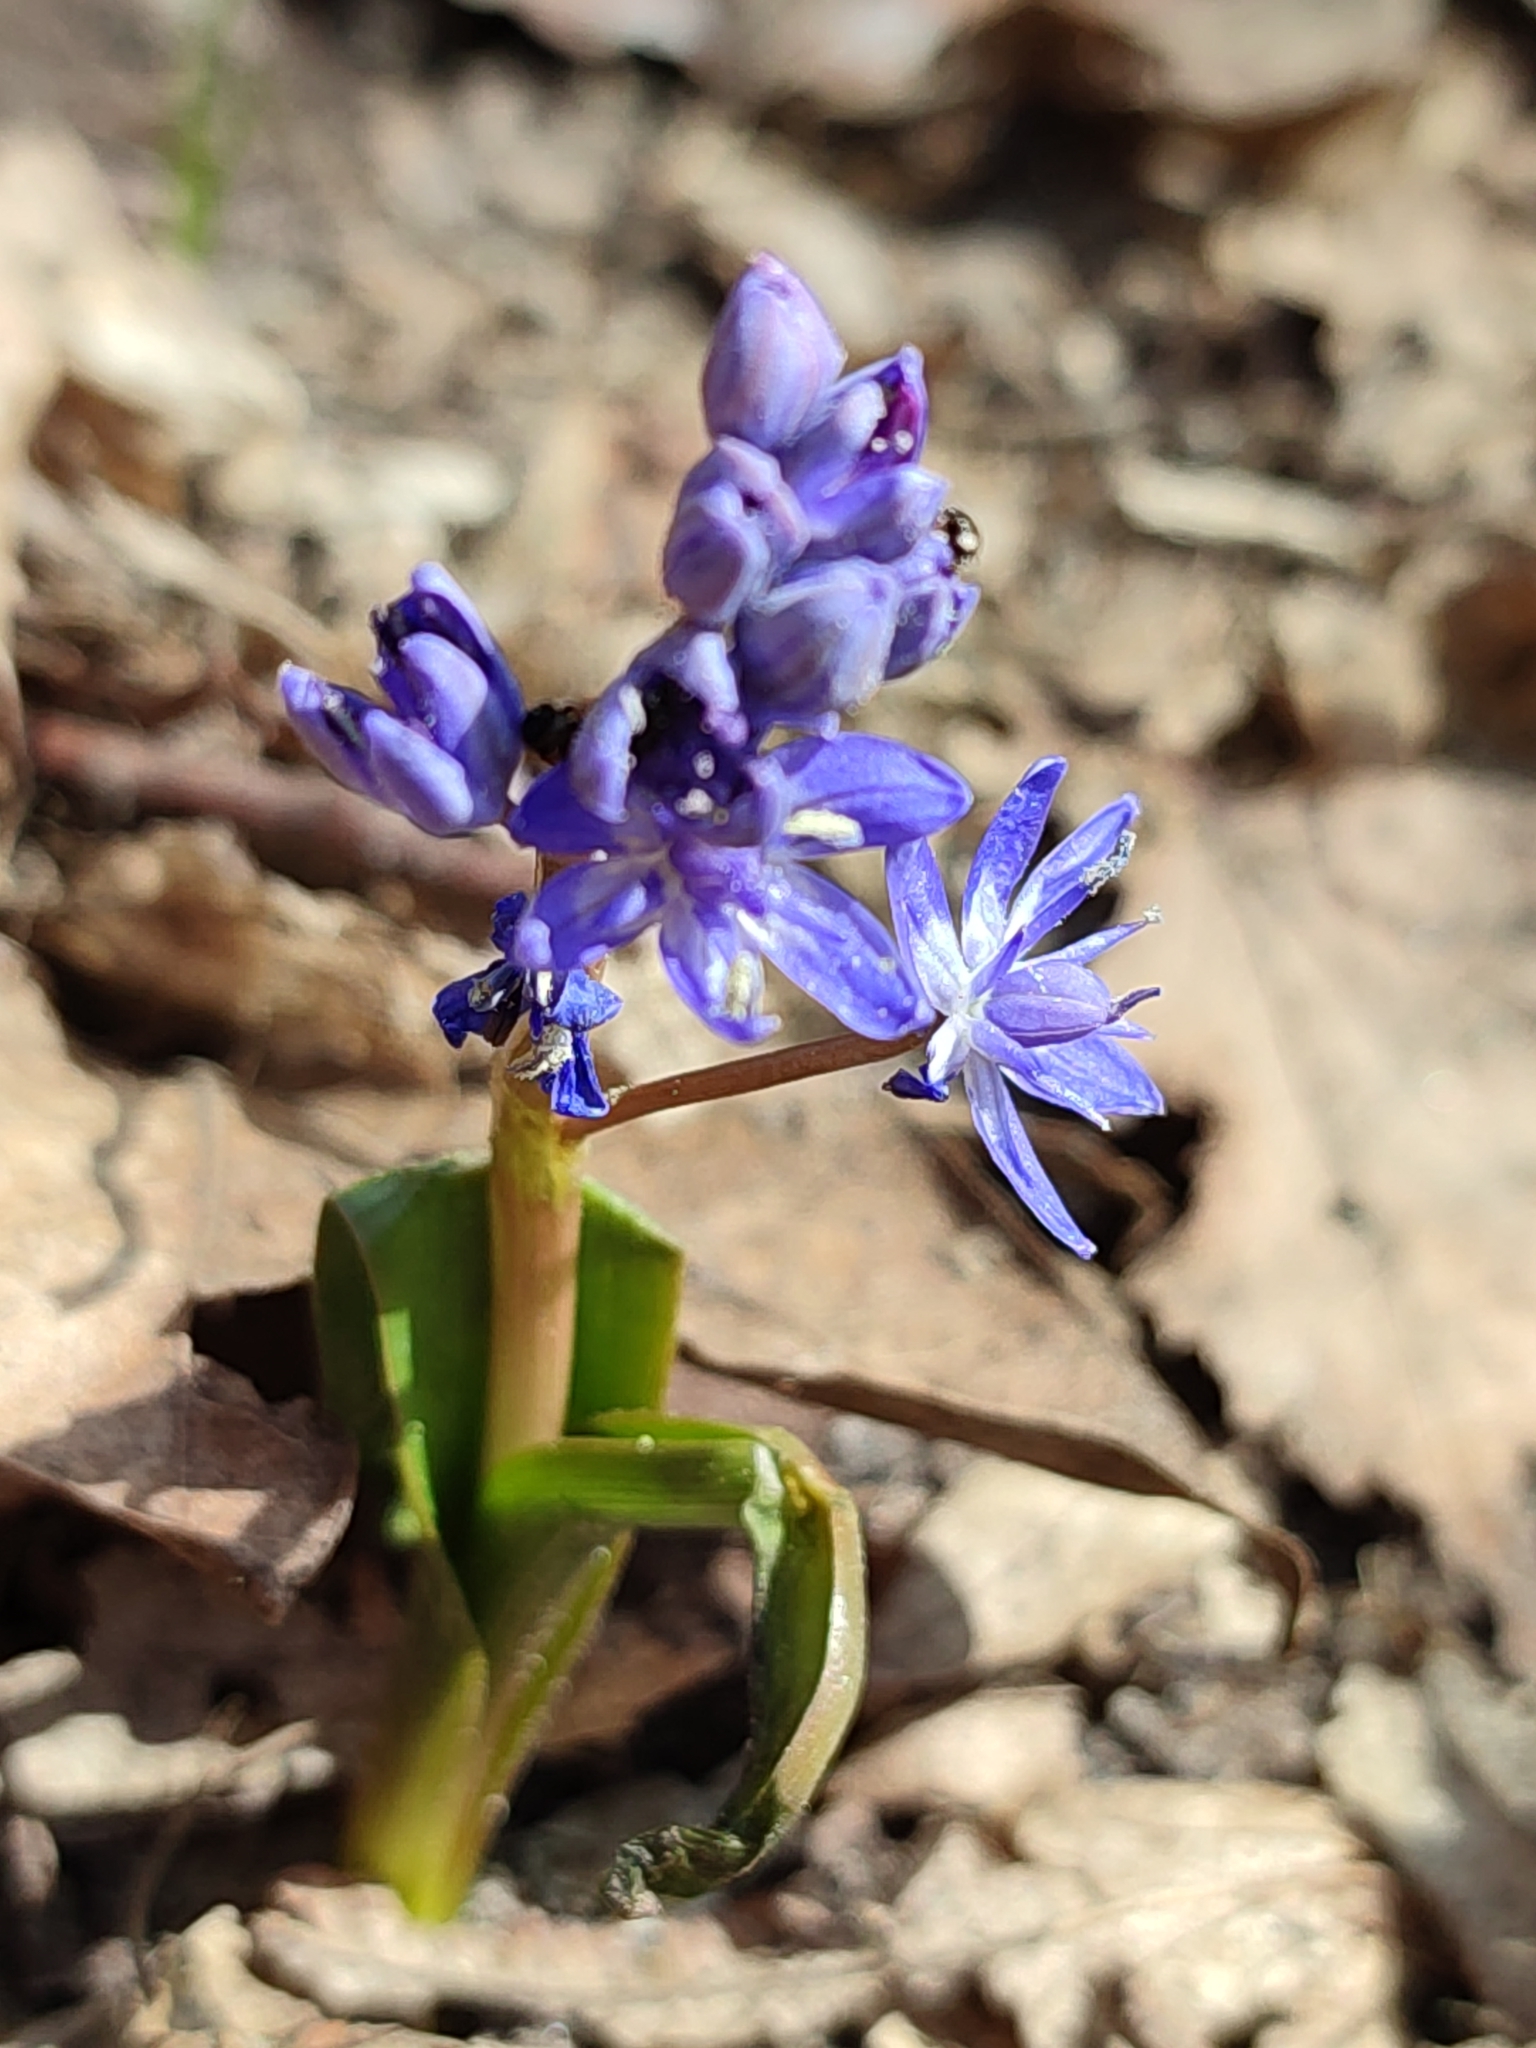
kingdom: Plantae
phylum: Tracheophyta
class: Liliopsida
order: Asparagales
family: Asparagaceae
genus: Scilla
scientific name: Scilla bifolia
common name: Alpine squill
